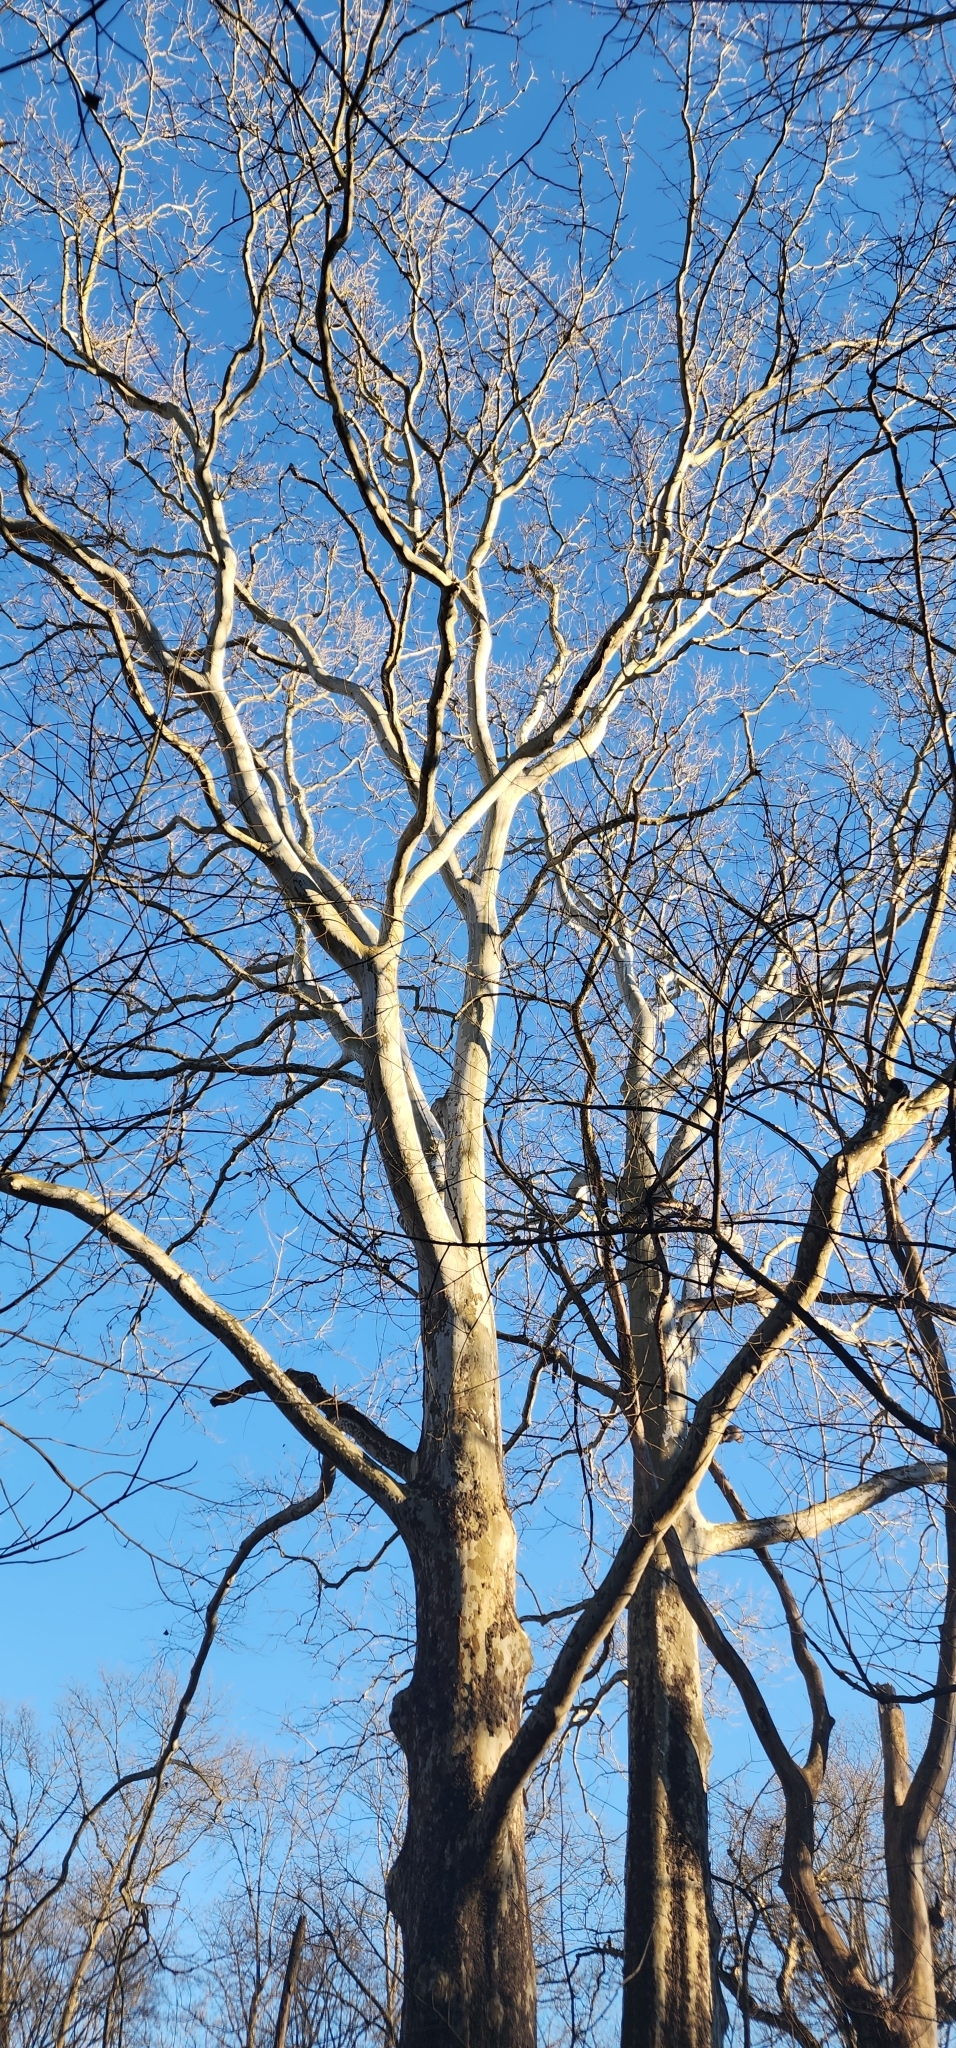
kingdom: Plantae
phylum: Tracheophyta
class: Magnoliopsida
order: Proteales
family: Platanaceae
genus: Platanus
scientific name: Platanus occidentalis
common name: American sycamore
